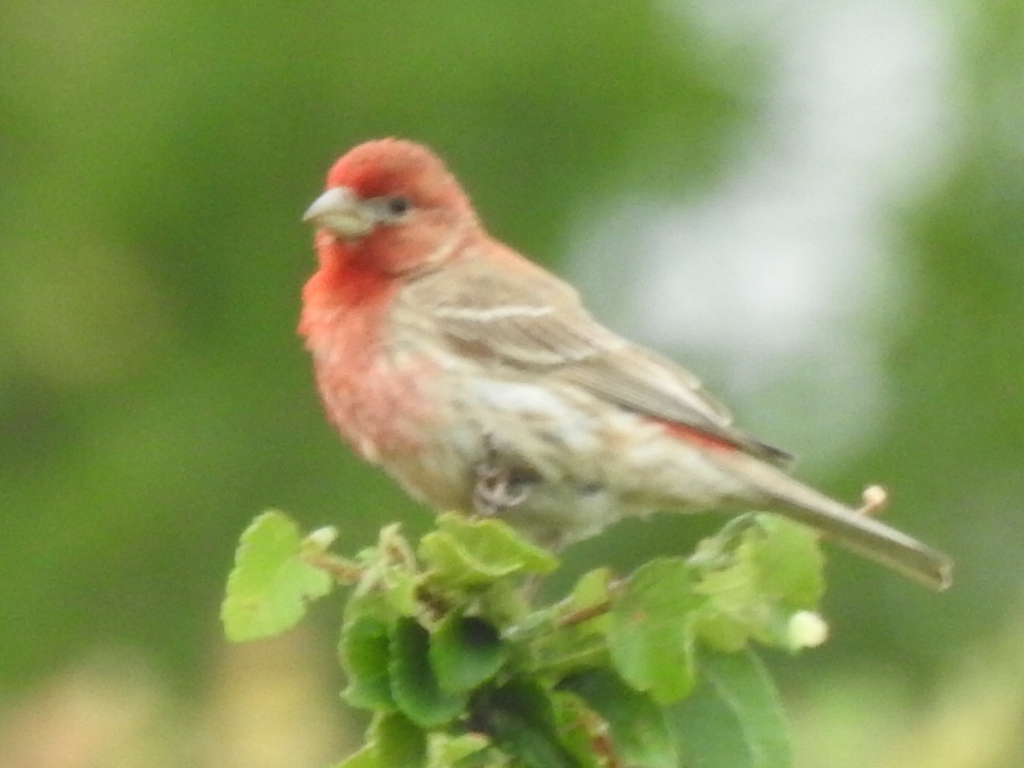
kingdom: Animalia
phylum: Chordata
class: Aves
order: Passeriformes
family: Fringillidae
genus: Haemorhous
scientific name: Haemorhous mexicanus
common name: House finch
